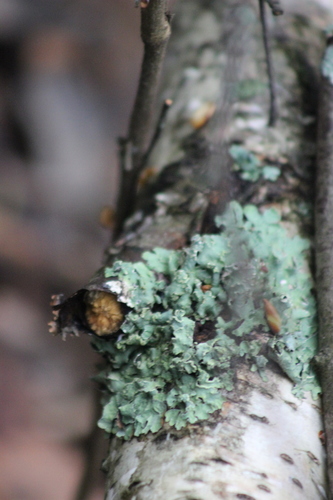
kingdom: Fungi
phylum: Ascomycota
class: Lecanoromycetes
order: Lecanorales
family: Parmeliaceae
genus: Parmelia
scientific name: Parmelia sulcata
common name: Netted shield lichen
